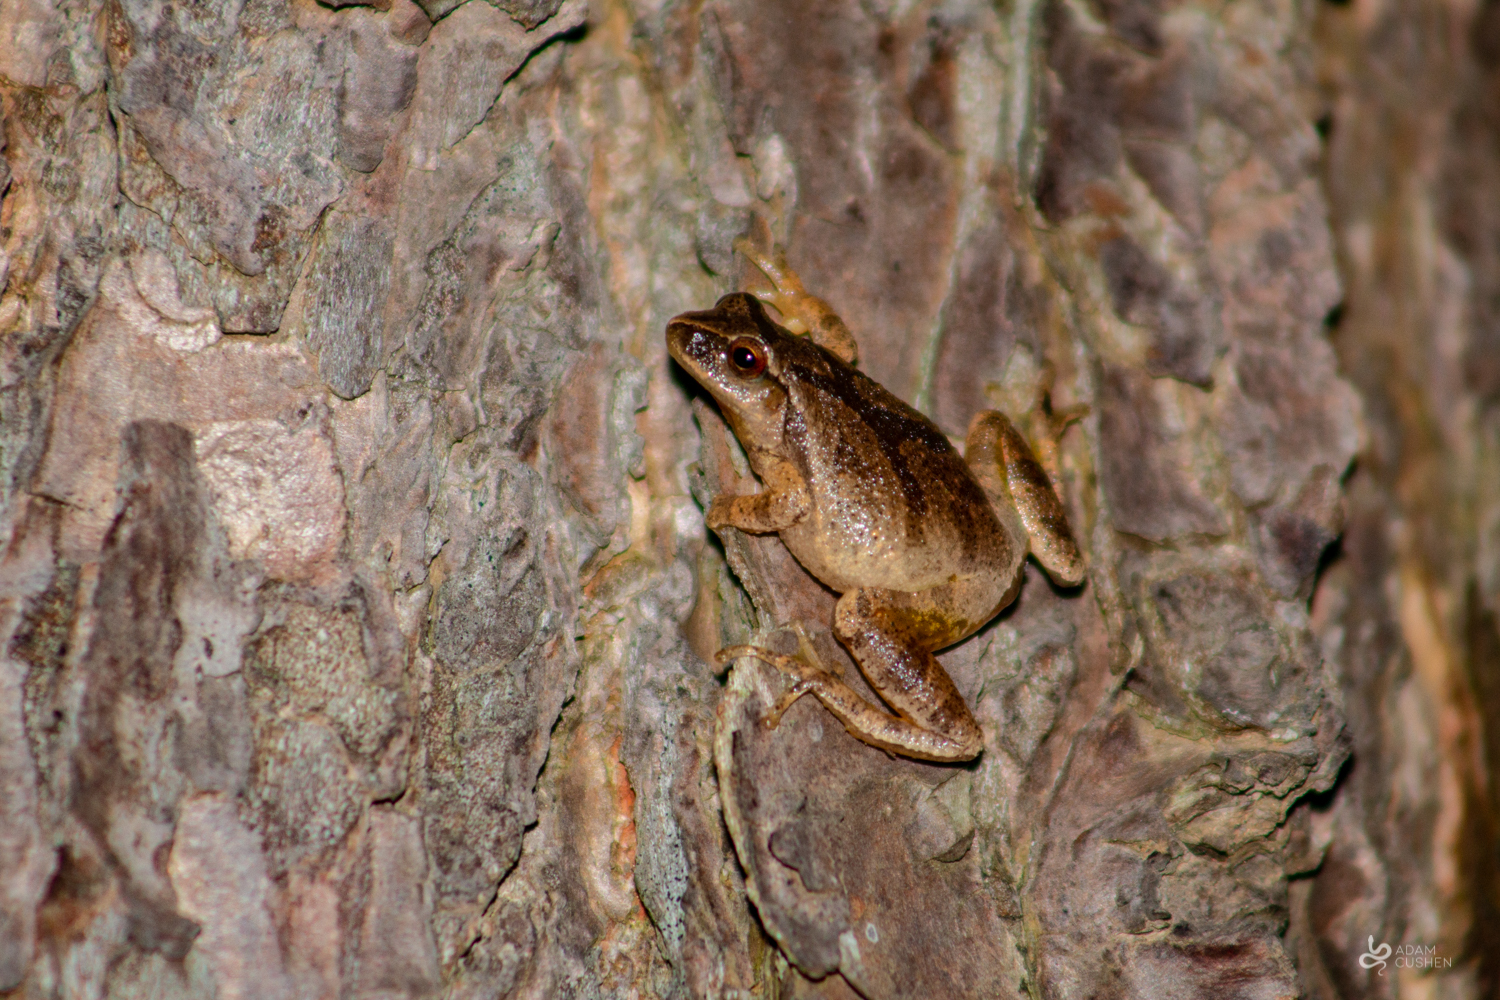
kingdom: Animalia
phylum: Chordata
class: Amphibia
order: Anura
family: Hylidae
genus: Pseudacris
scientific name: Pseudacris crucifer
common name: Spring peeper
